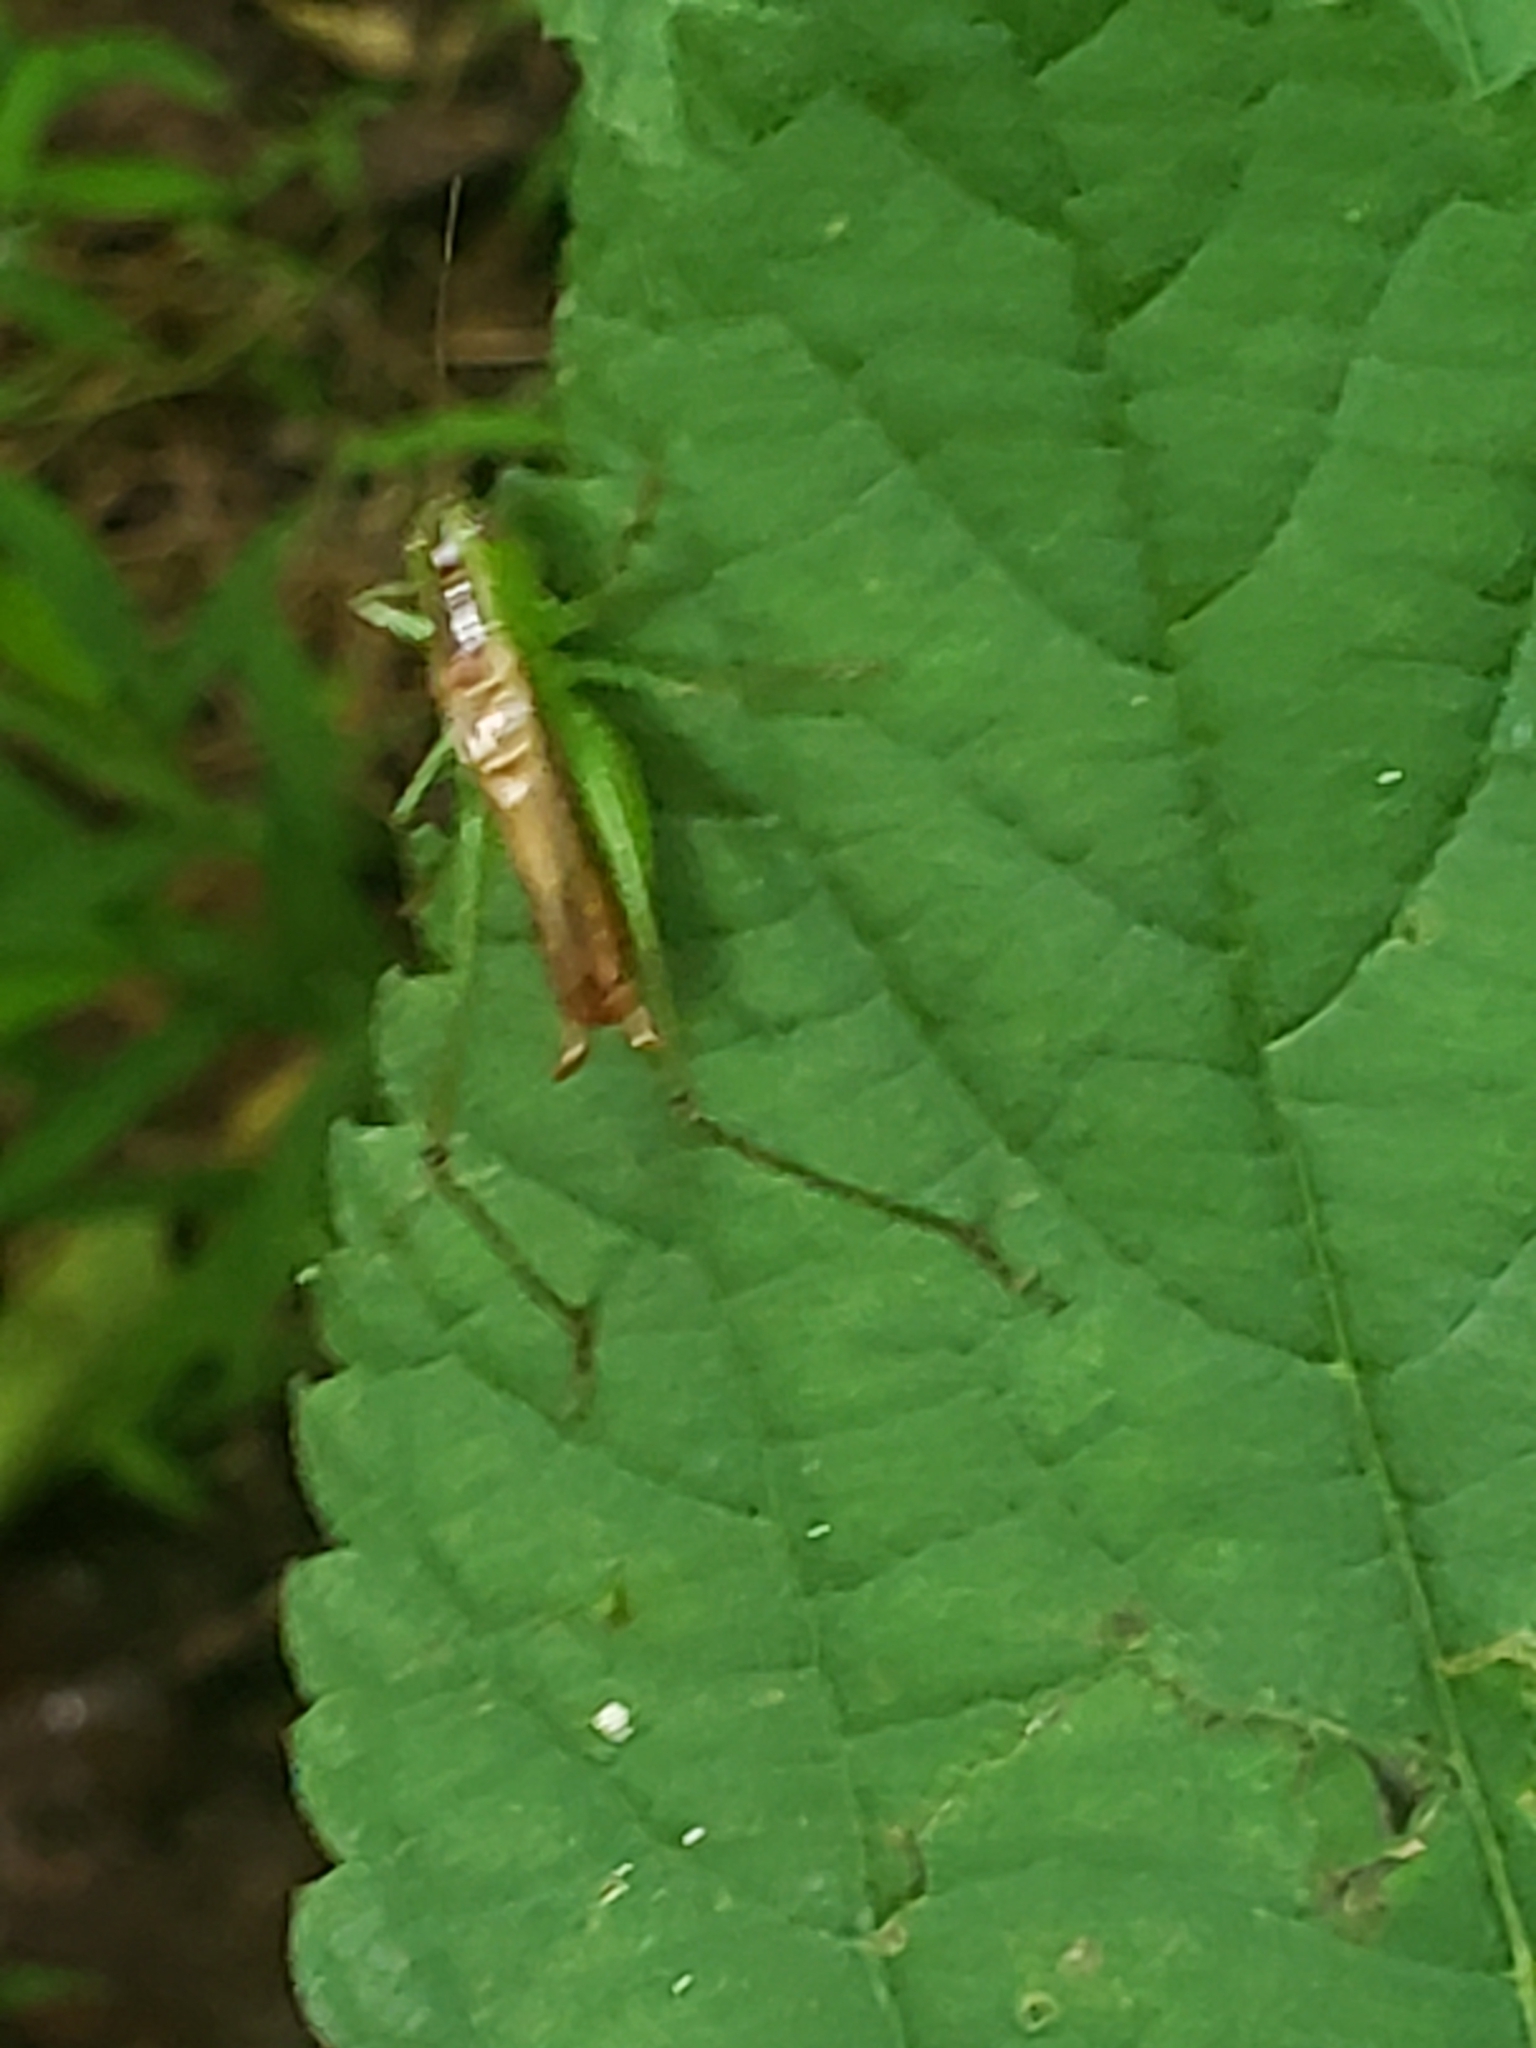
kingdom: Animalia
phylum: Arthropoda
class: Insecta
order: Orthoptera
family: Tettigoniidae
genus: Conocephalus
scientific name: Conocephalus brevipennis
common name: Short-winged meadow katydid
